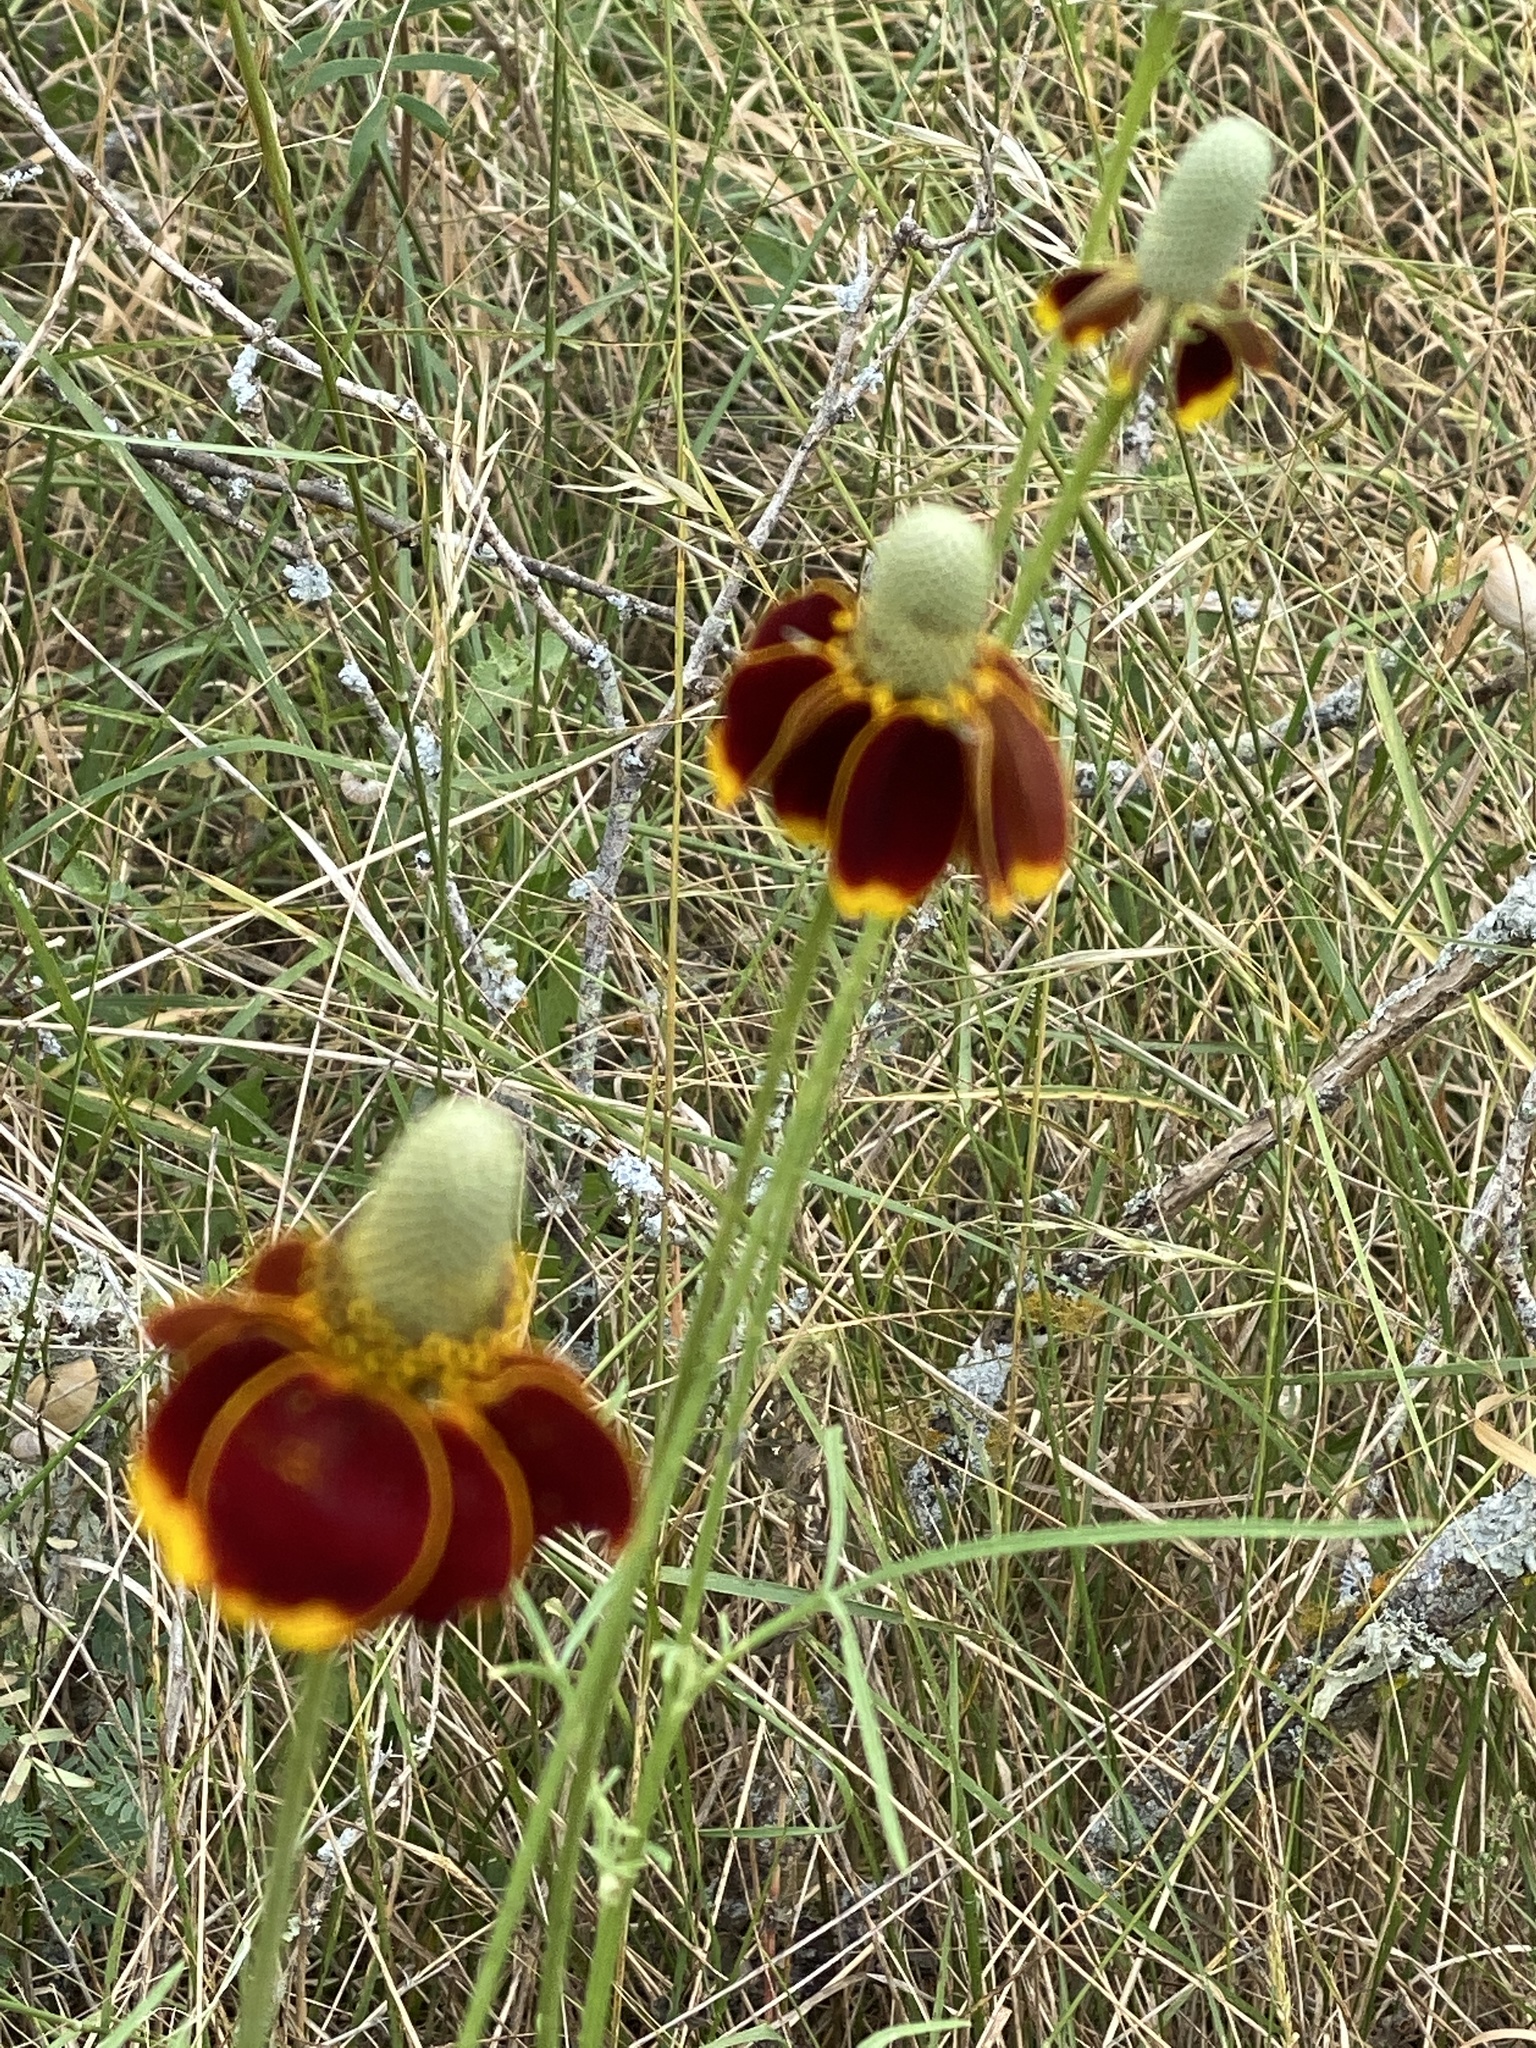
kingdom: Plantae
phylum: Tracheophyta
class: Magnoliopsida
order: Asterales
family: Asteraceae
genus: Ratibida
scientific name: Ratibida columnifera
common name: Prairie coneflower
